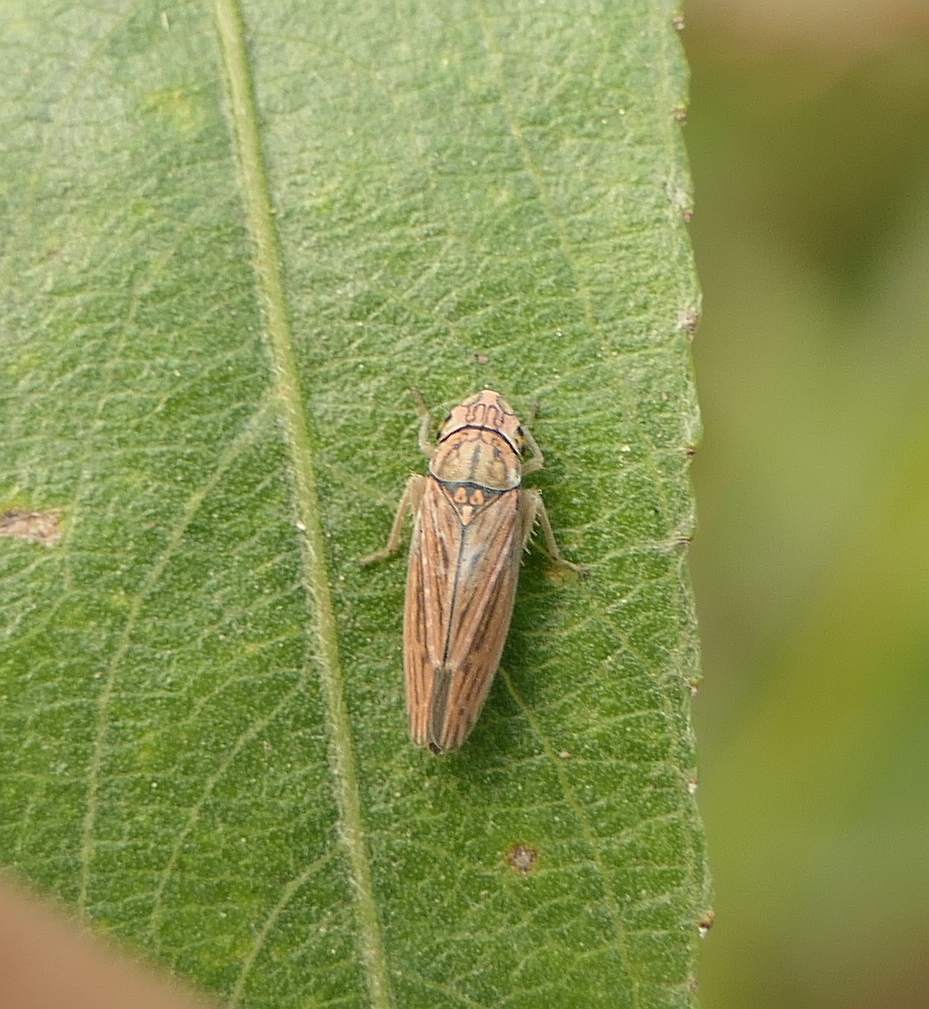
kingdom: Animalia
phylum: Arthropoda
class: Insecta
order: Hemiptera
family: Cicadellidae
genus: Neokolla
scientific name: Neokolla hieroglyphica
